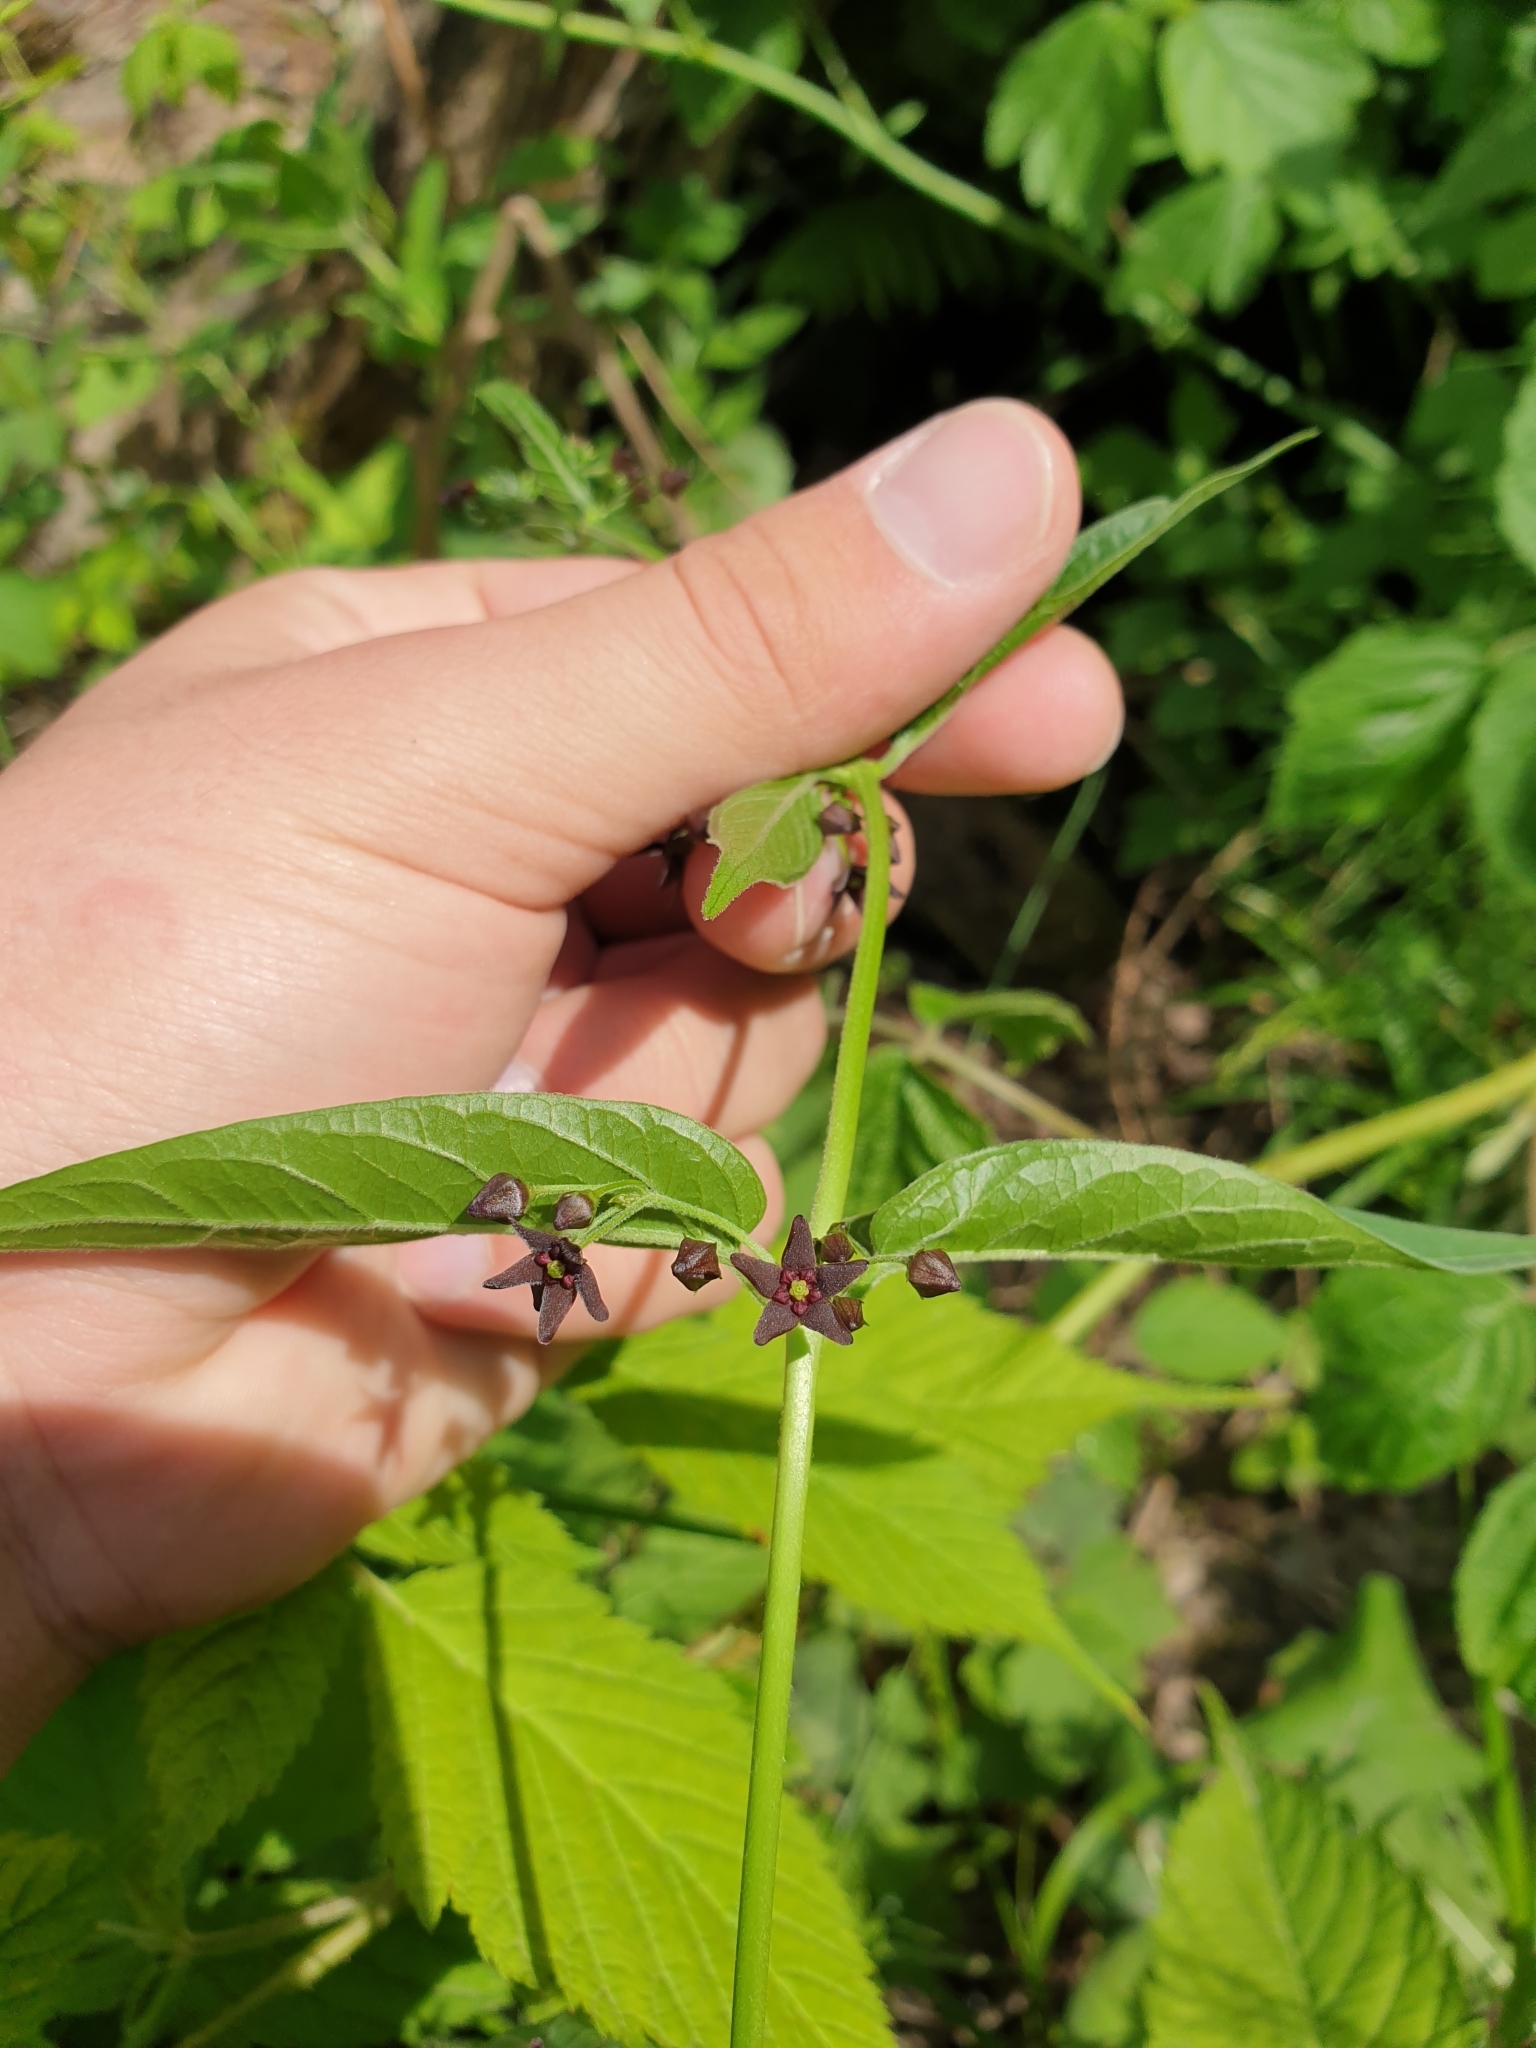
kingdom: Plantae
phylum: Tracheophyta
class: Magnoliopsida
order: Gentianales
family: Apocynaceae
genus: Vincetoxicum
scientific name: Vincetoxicum scandens
